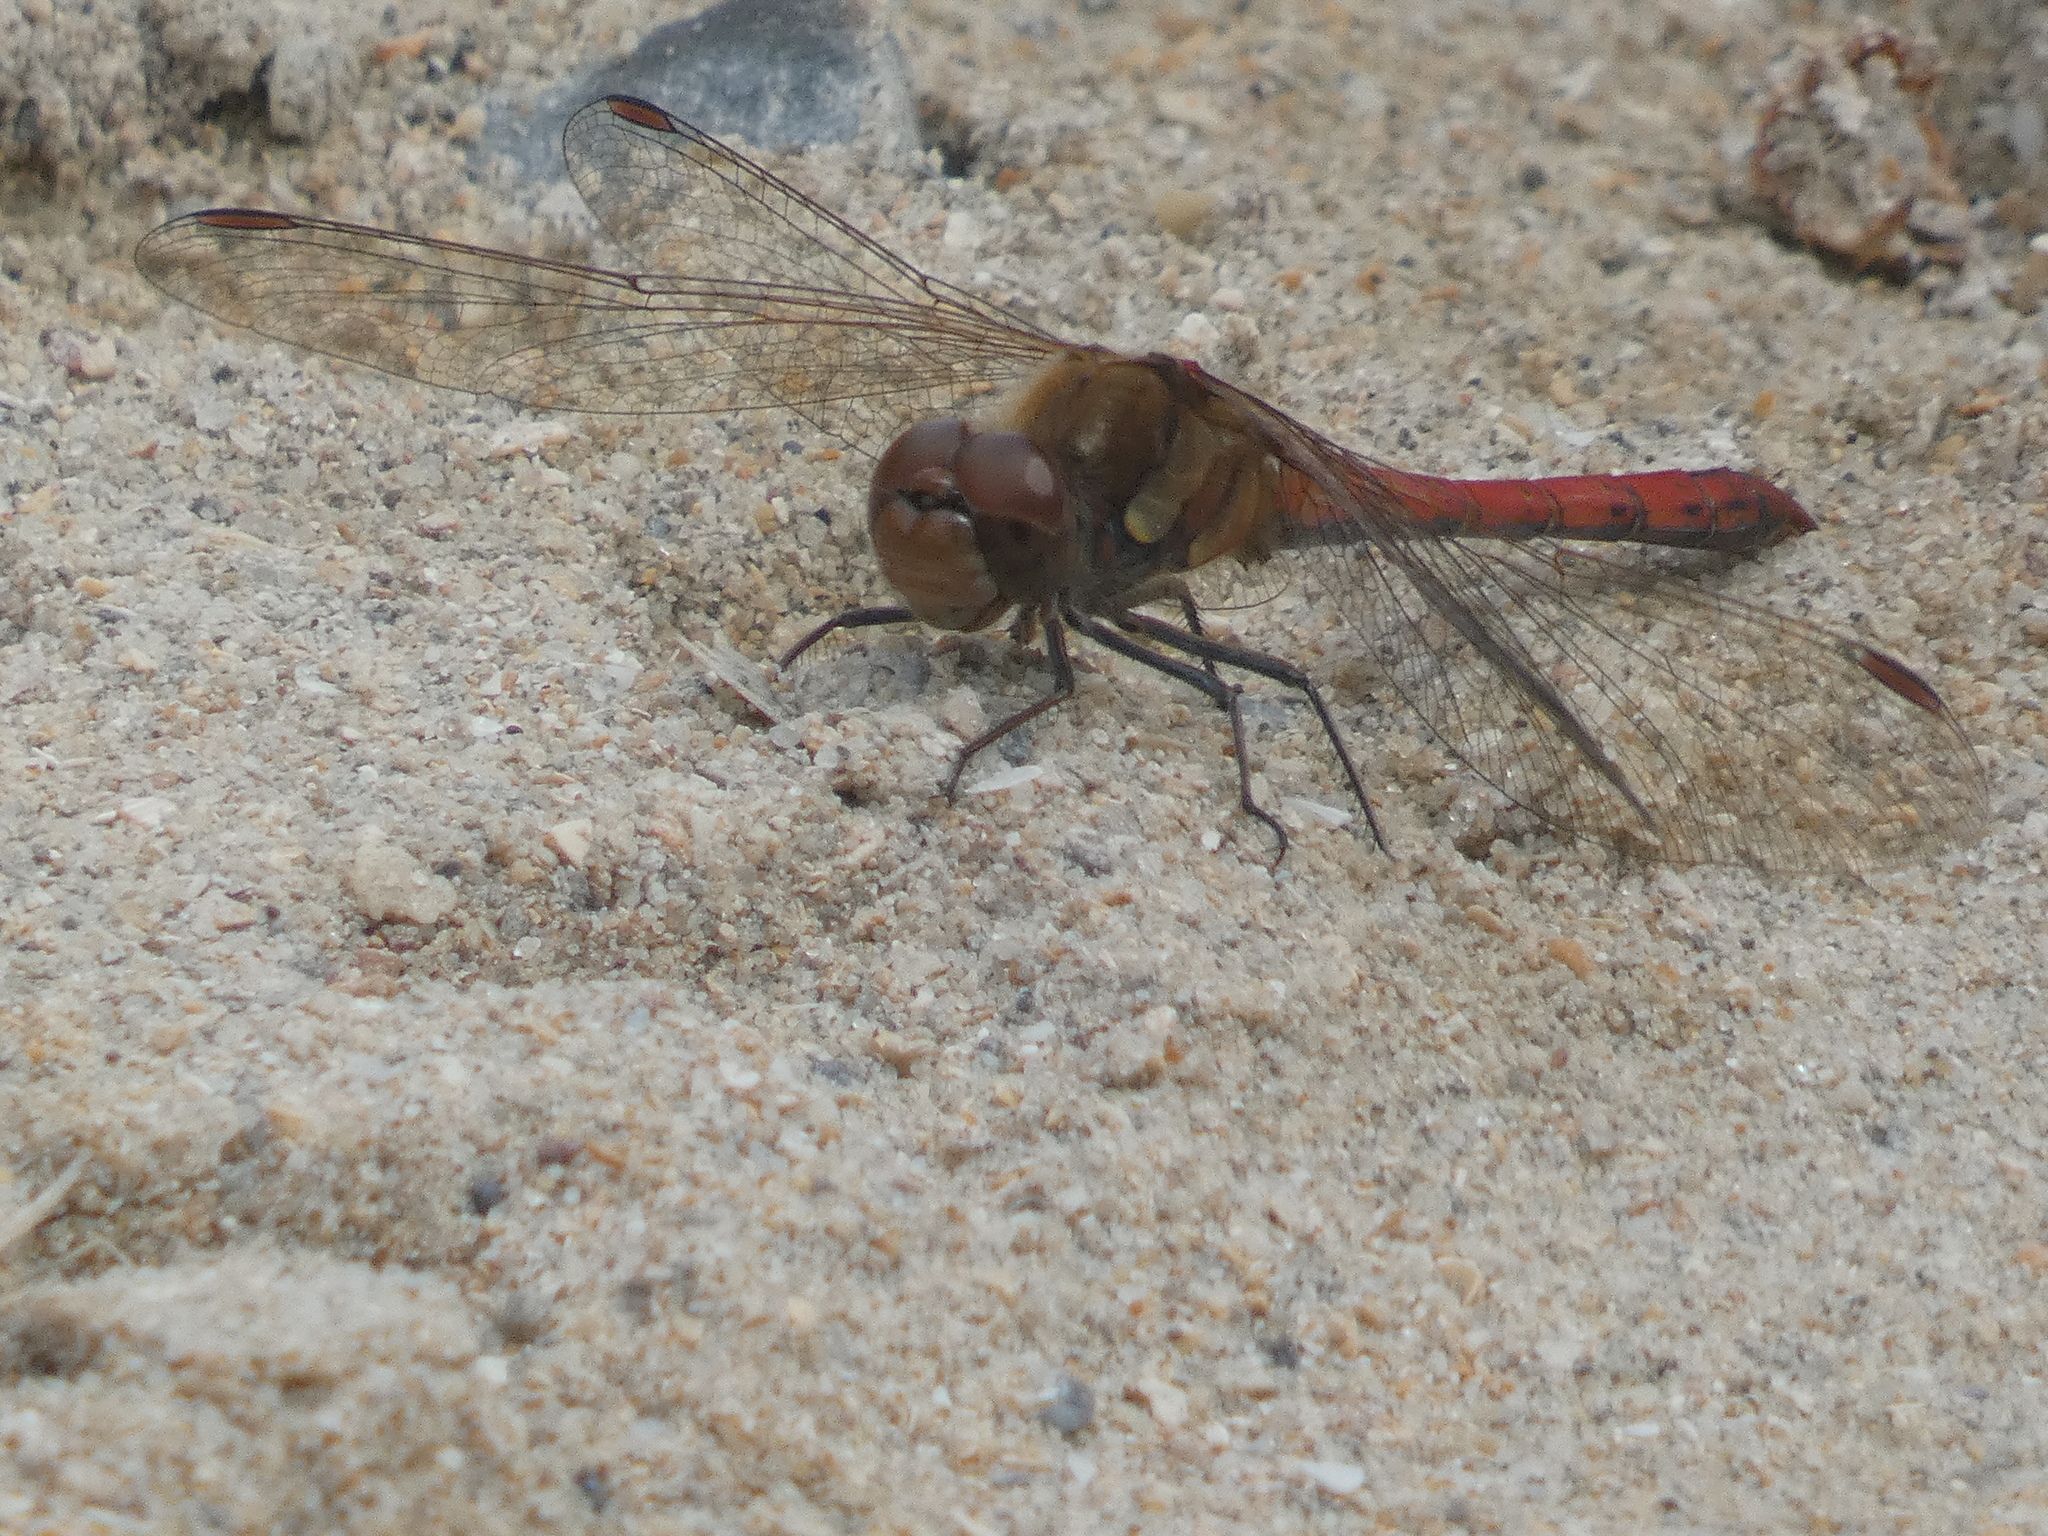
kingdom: Animalia
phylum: Arthropoda
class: Insecta
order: Odonata
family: Libellulidae
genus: Sympetrum
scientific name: Sympetrum striolatum
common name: Common darter
